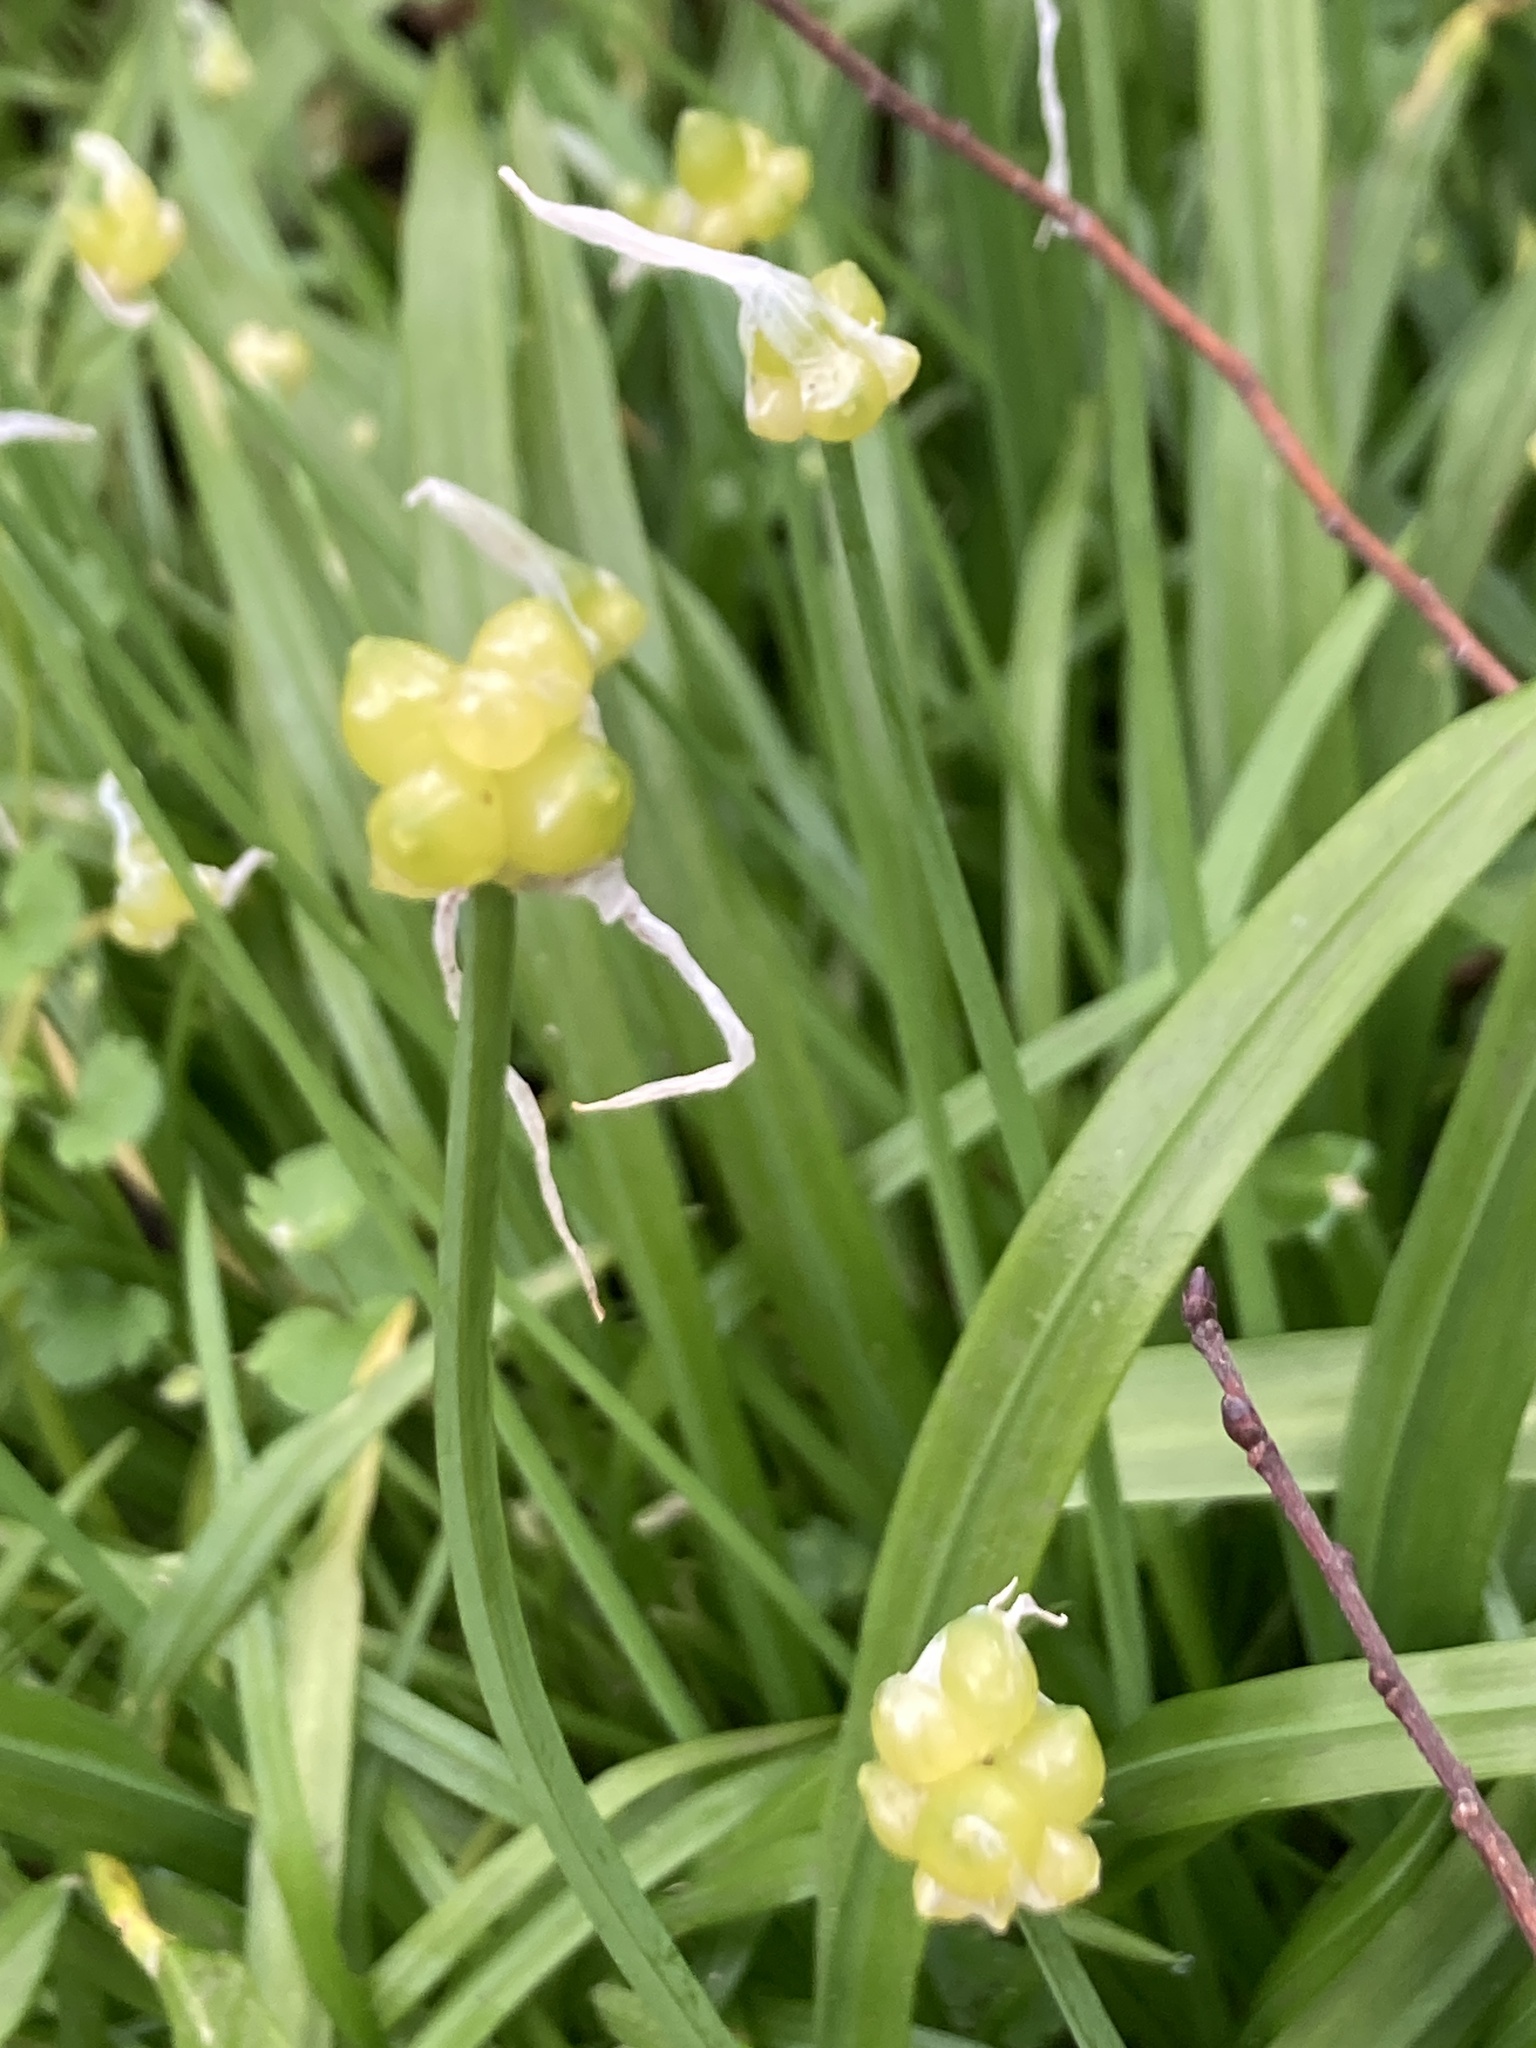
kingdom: Plantae
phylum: Tracheophyta
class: Liliopsida
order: Asparagales
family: Amaryllidaceae
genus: Allium
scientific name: Allium paradoxum
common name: Few-flowered garlic
